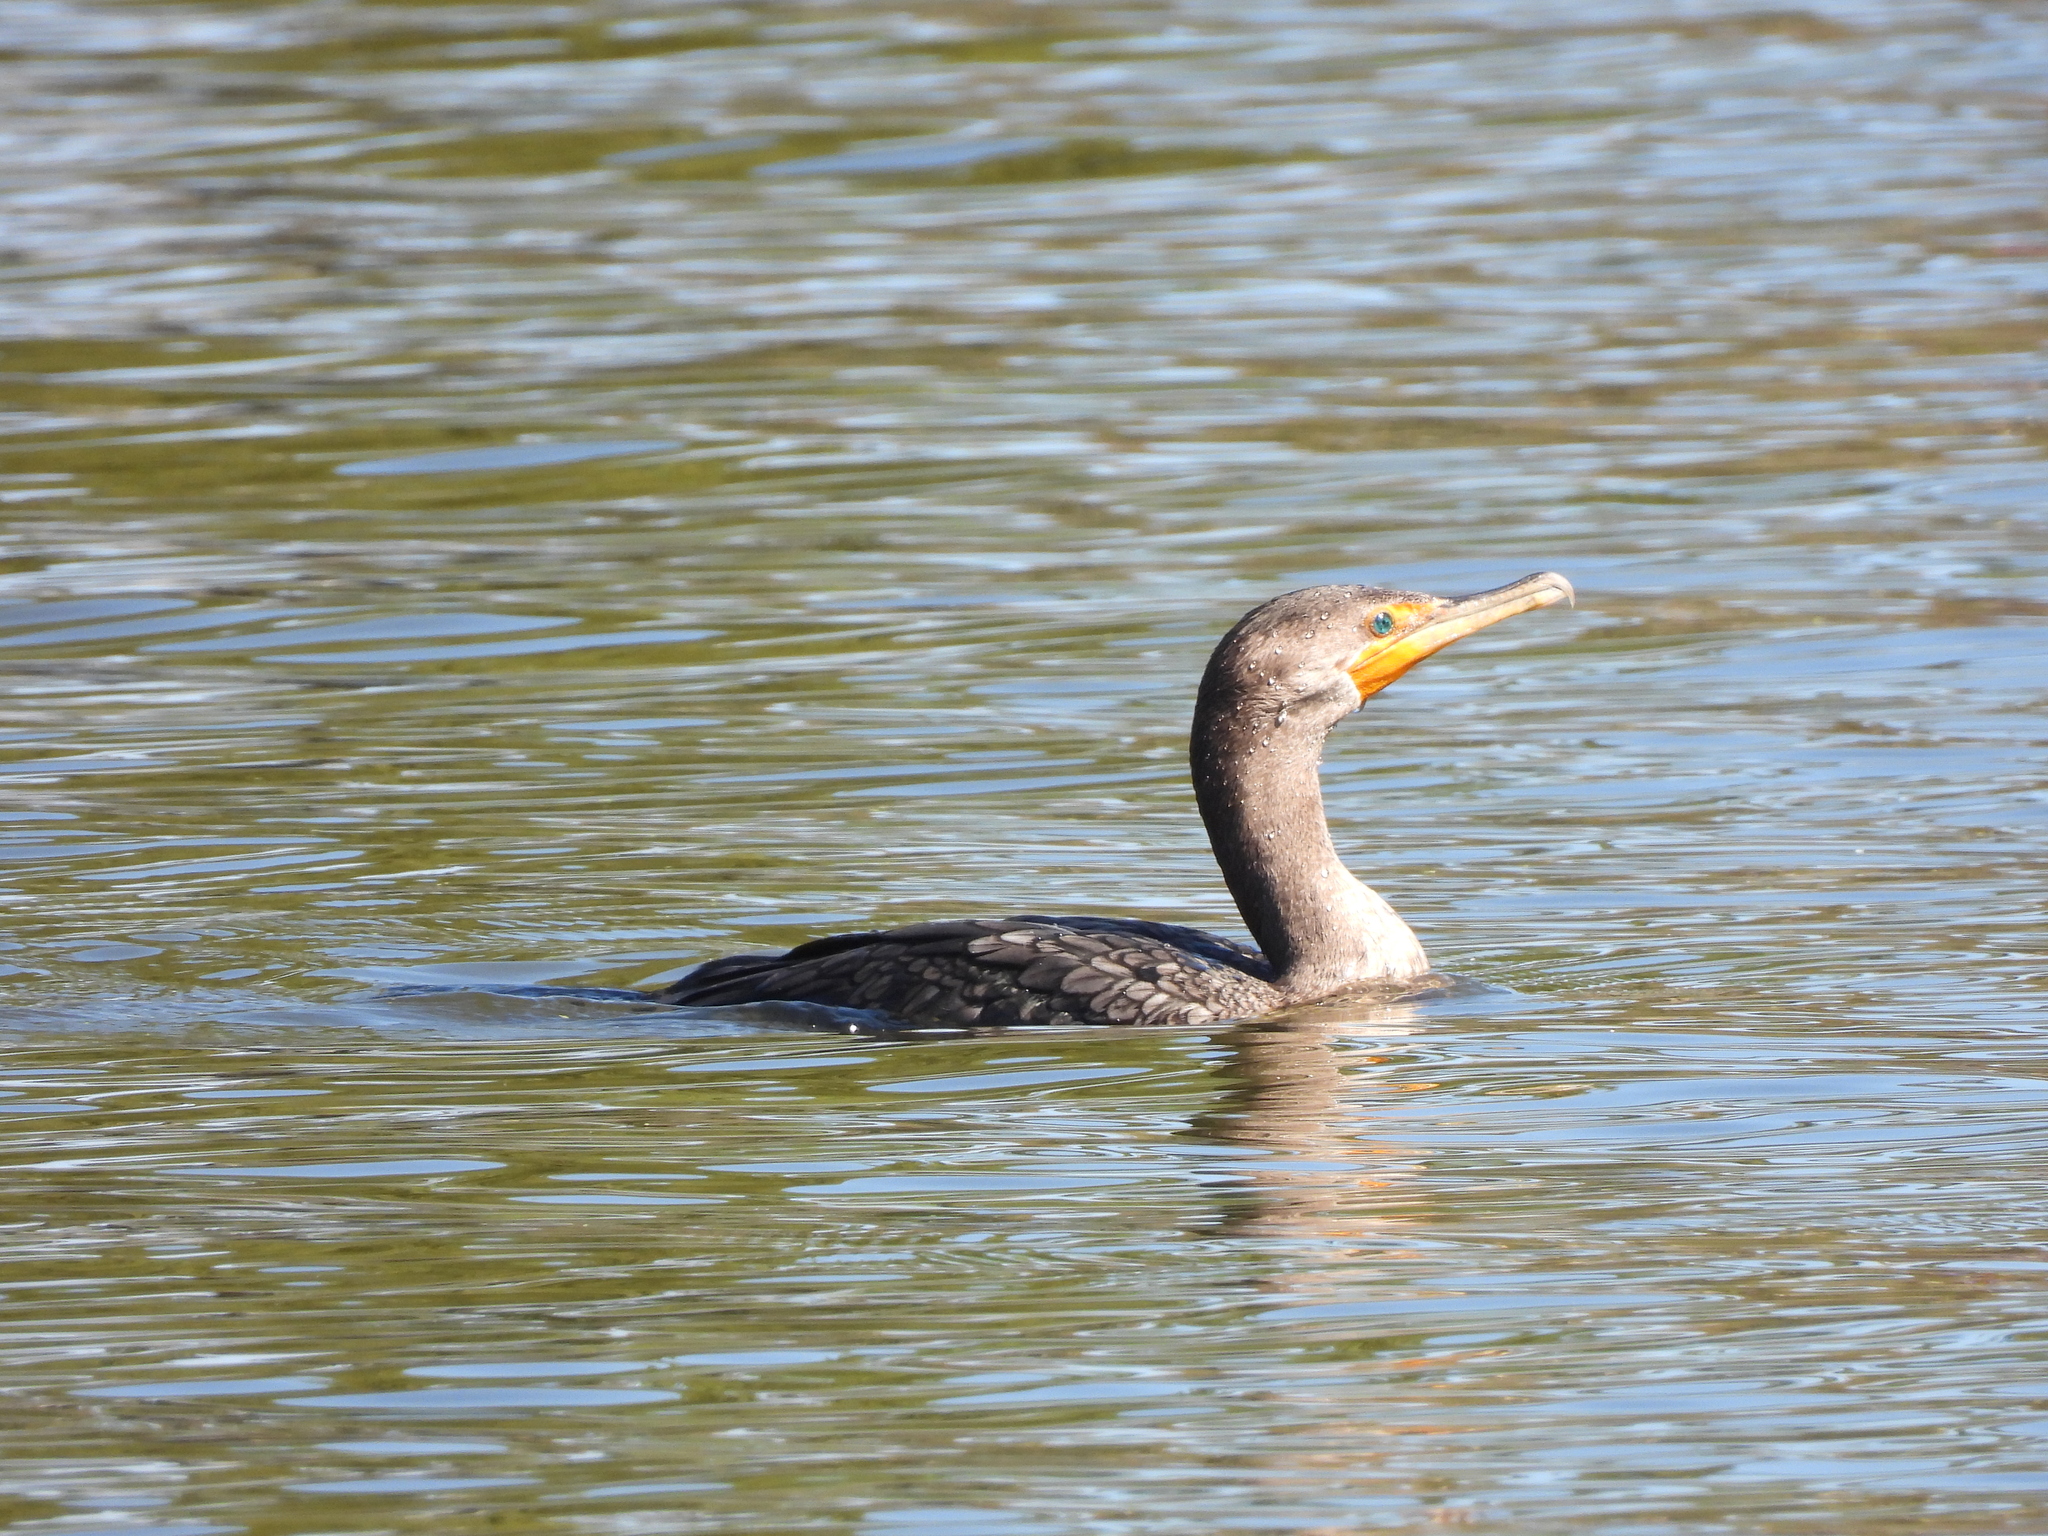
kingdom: Animalia
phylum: Chordata
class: Aves
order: Suliformes
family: Phalacrocoracidae
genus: Phalacrocorax
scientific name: Phalacrocorax auritus
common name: Double-crested cormorant
